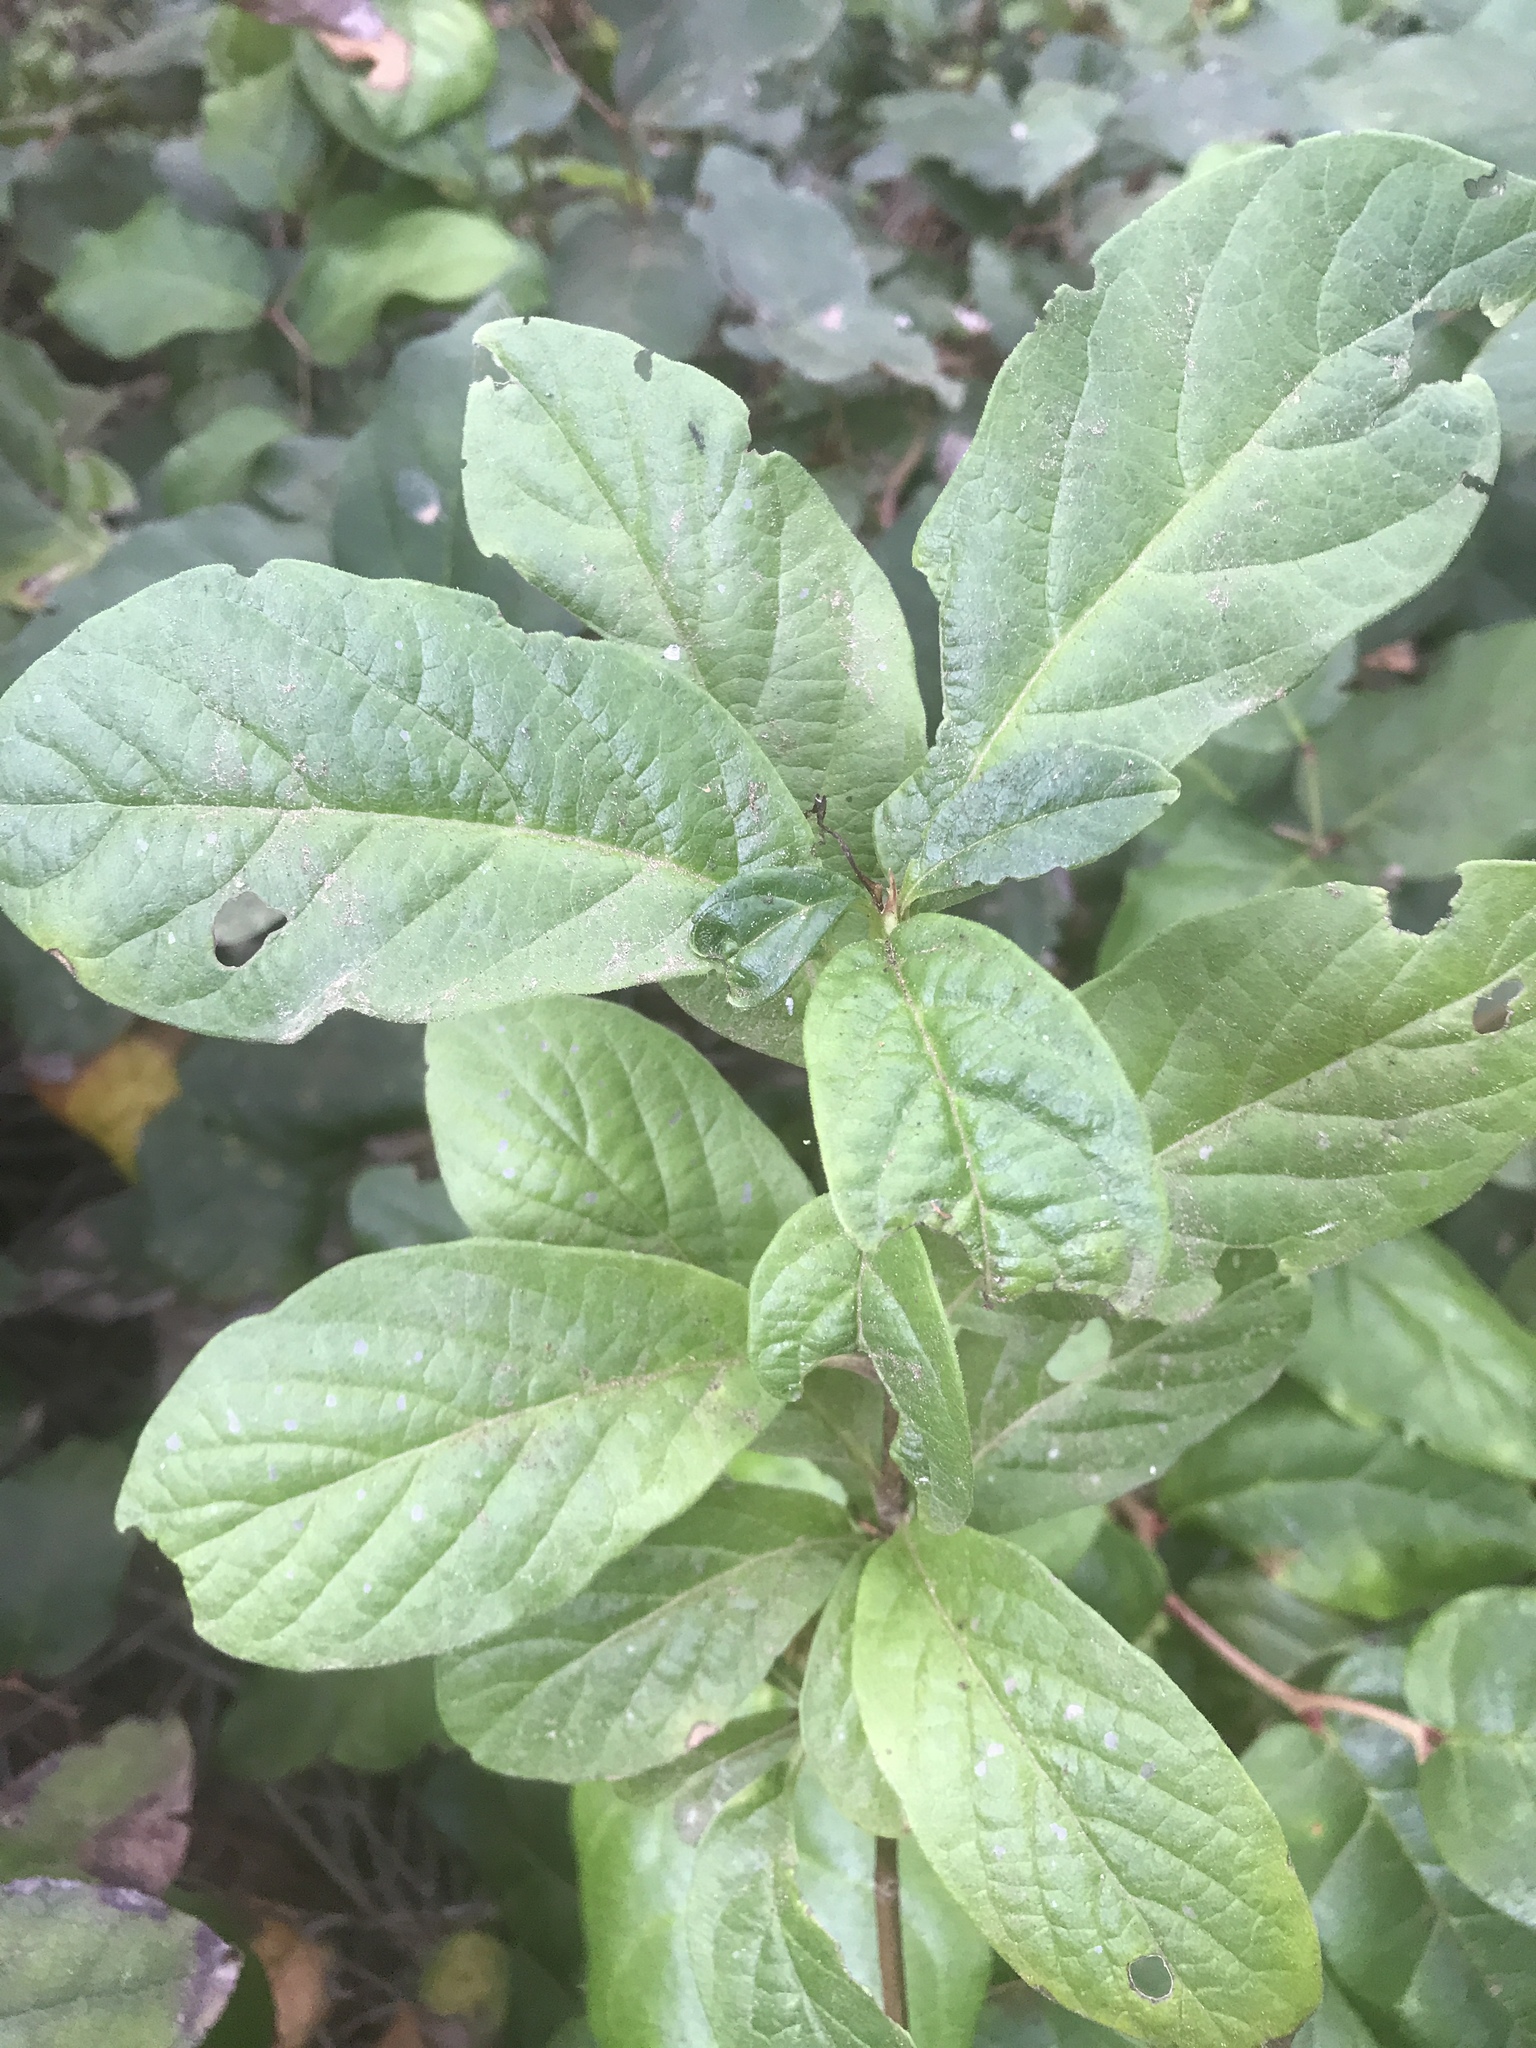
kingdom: Plantae
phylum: Tracheophyta
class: Magnoliopsida
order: Dipsacales
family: Caprifoliaceae
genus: Lonicera
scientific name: Lonicera involucrata
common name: Californian honeysuckle
